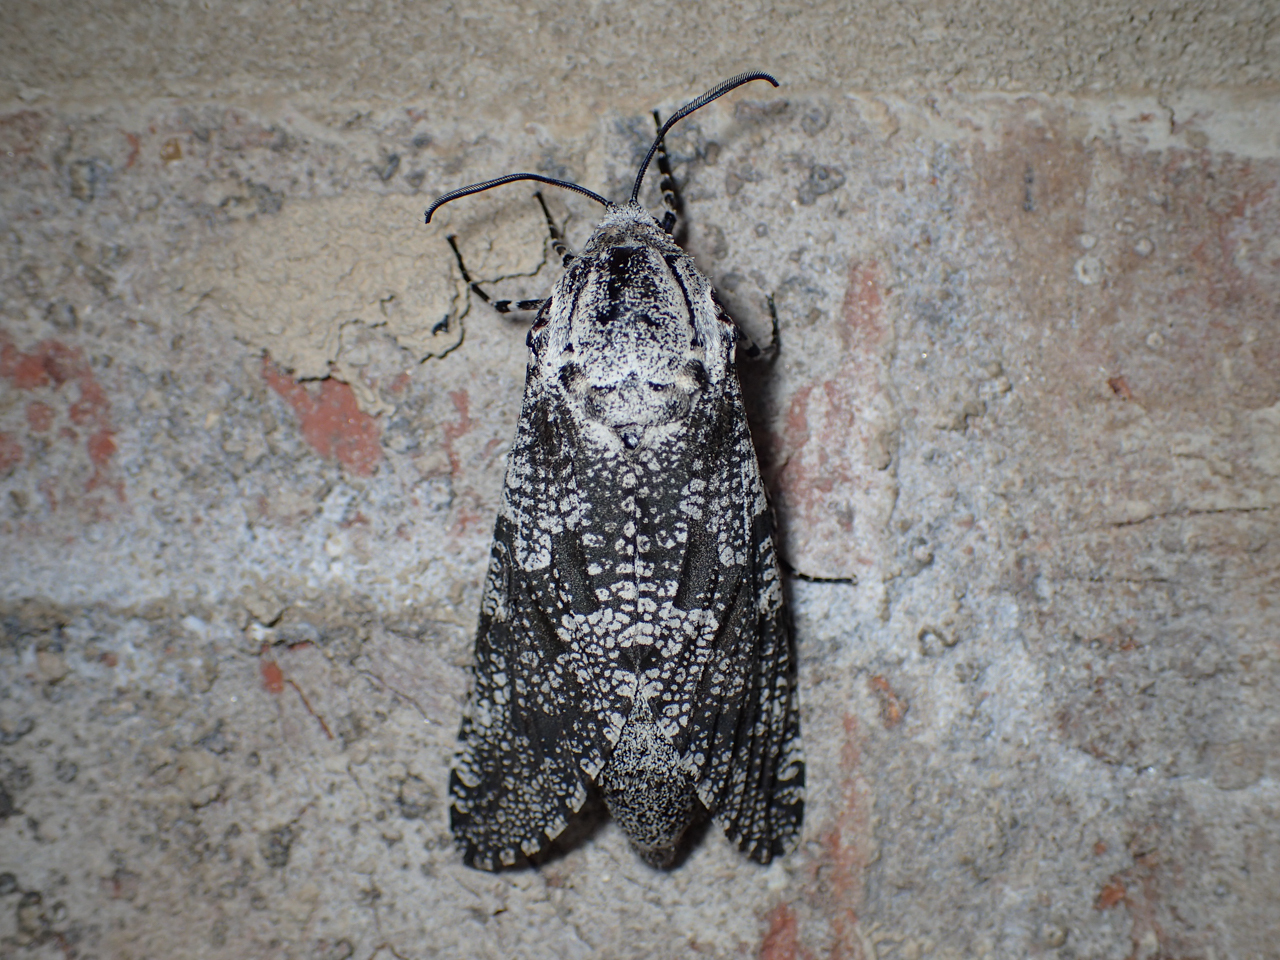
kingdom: Animalia
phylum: Arthropoda
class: Insecta
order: Lepidoptera
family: Cossidae
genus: Prionoxystus
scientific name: Prionoxystus robiniae
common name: Carpenterworm
